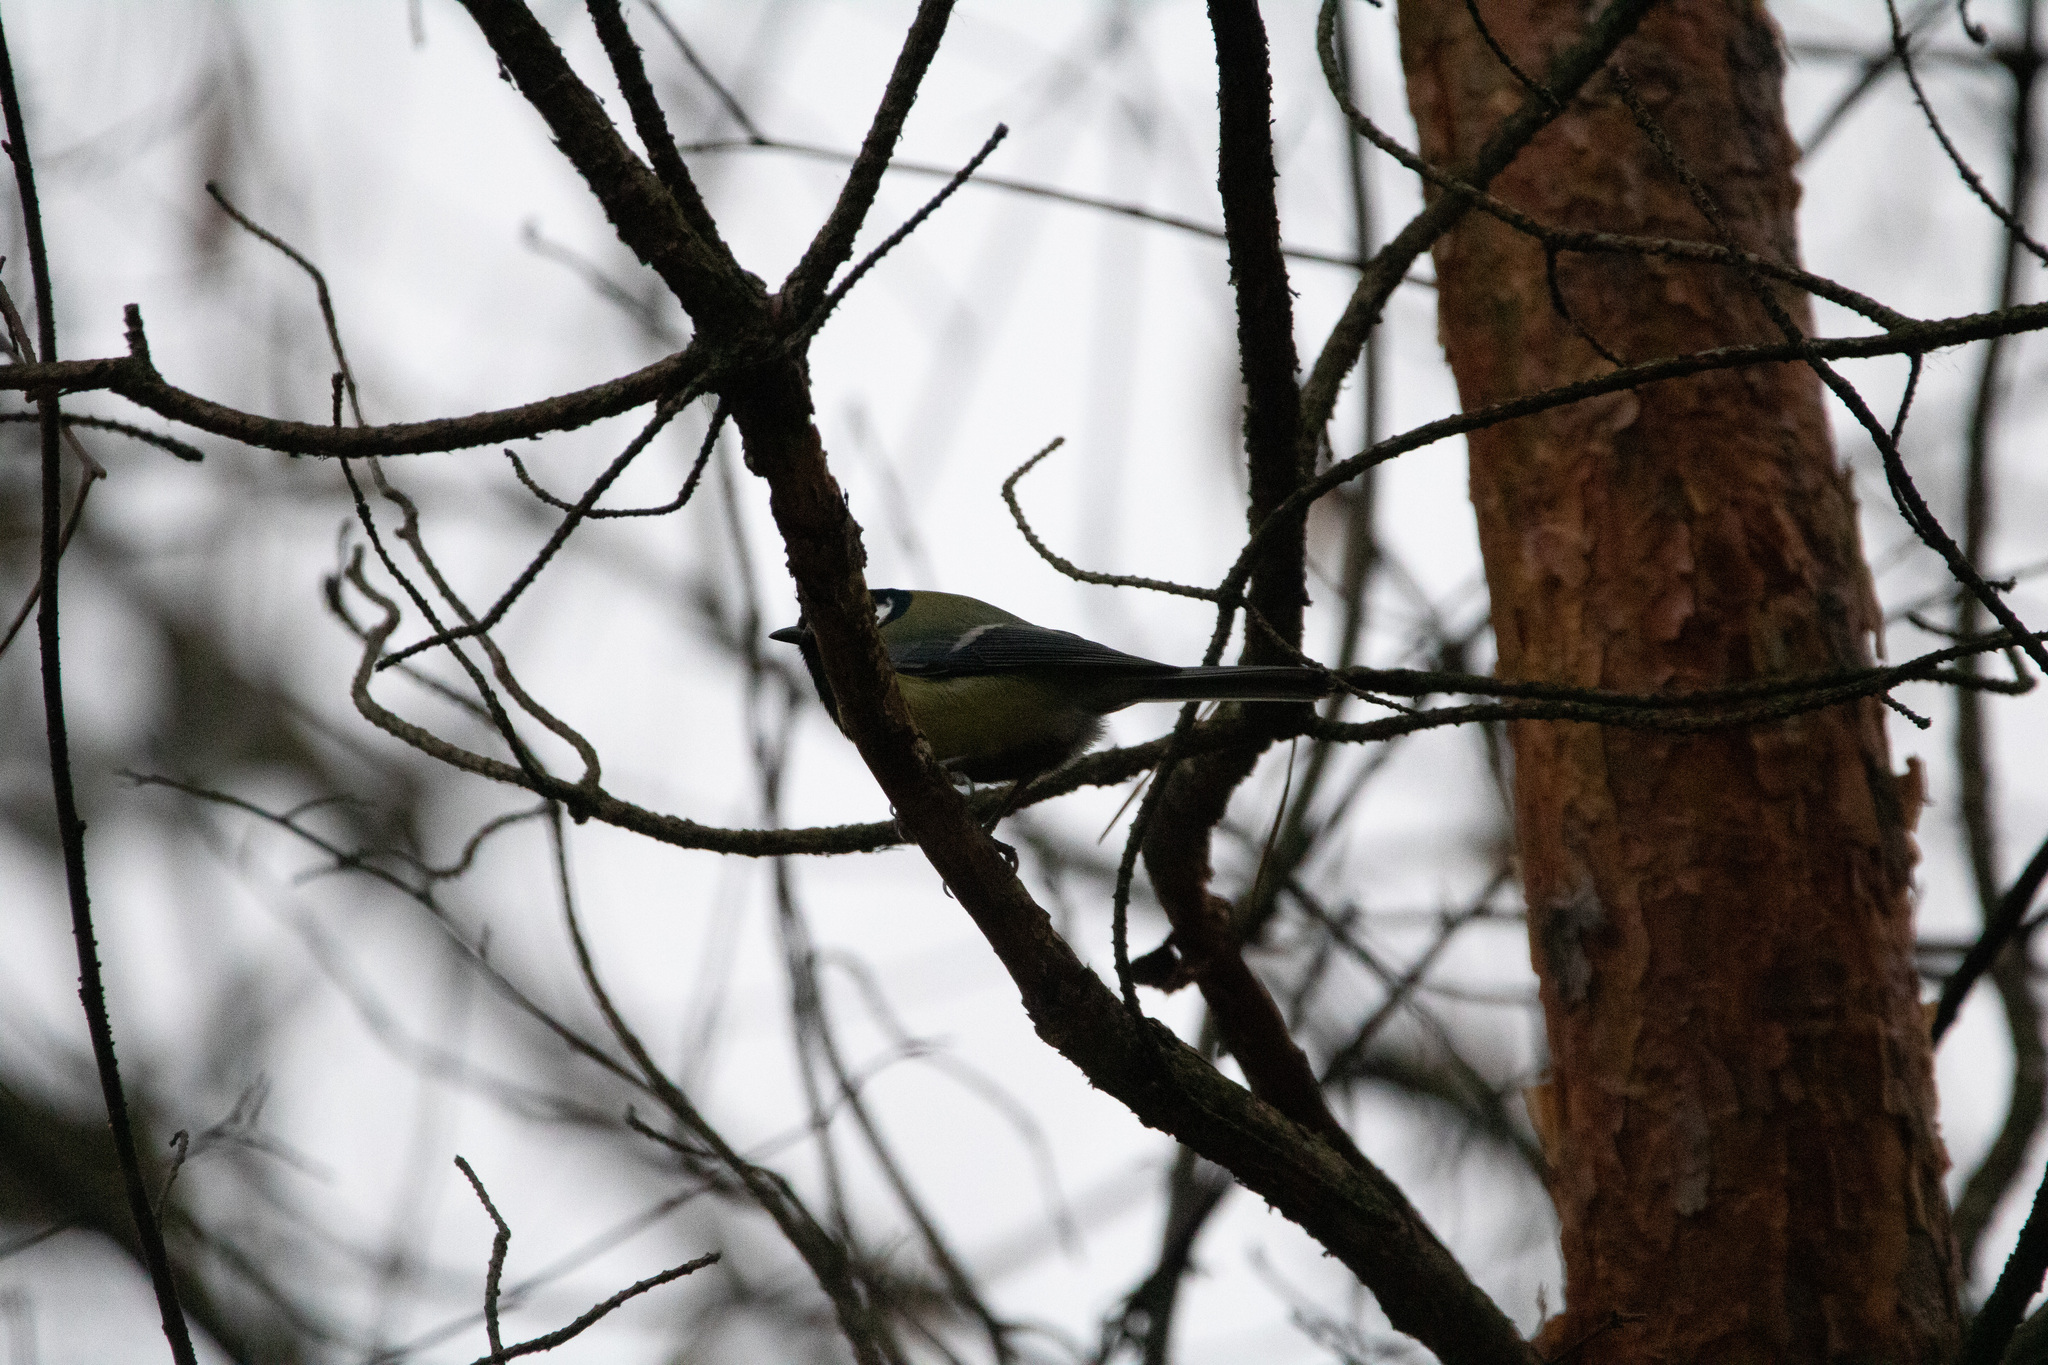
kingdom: Animalia
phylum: Chordata
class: Aves
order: Passeriformes
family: Paridae
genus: Parus
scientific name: Parus major
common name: Great tit
